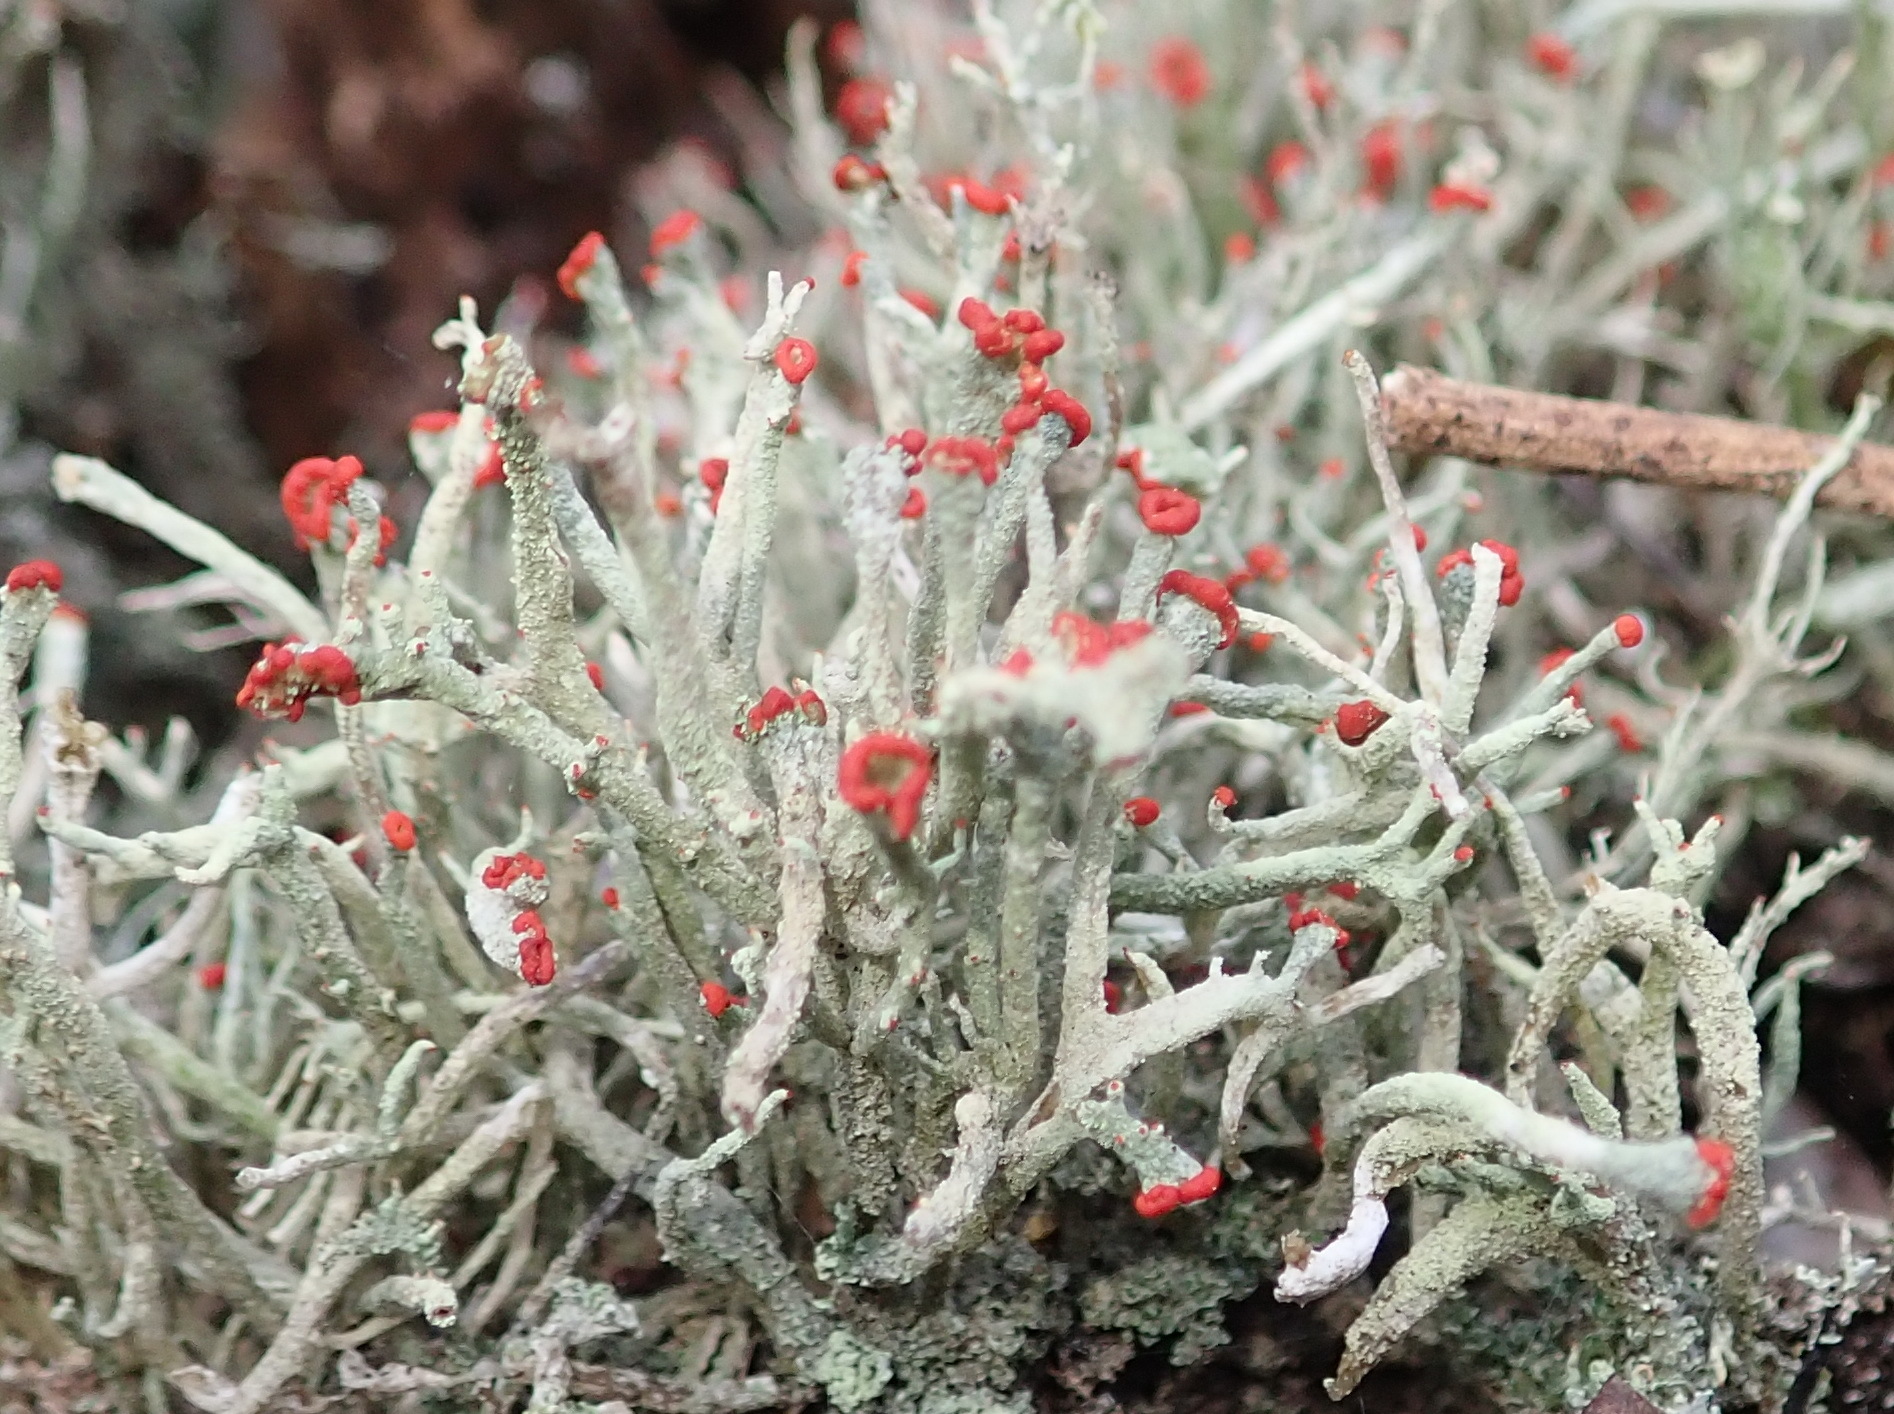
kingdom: Fungi
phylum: Ascomycota
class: Lecanoromycetes
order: Lecanorales
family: Cladoniaceae
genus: Cladonia
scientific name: Cladonia floerkeana
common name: Gritty british soldiers lichen
